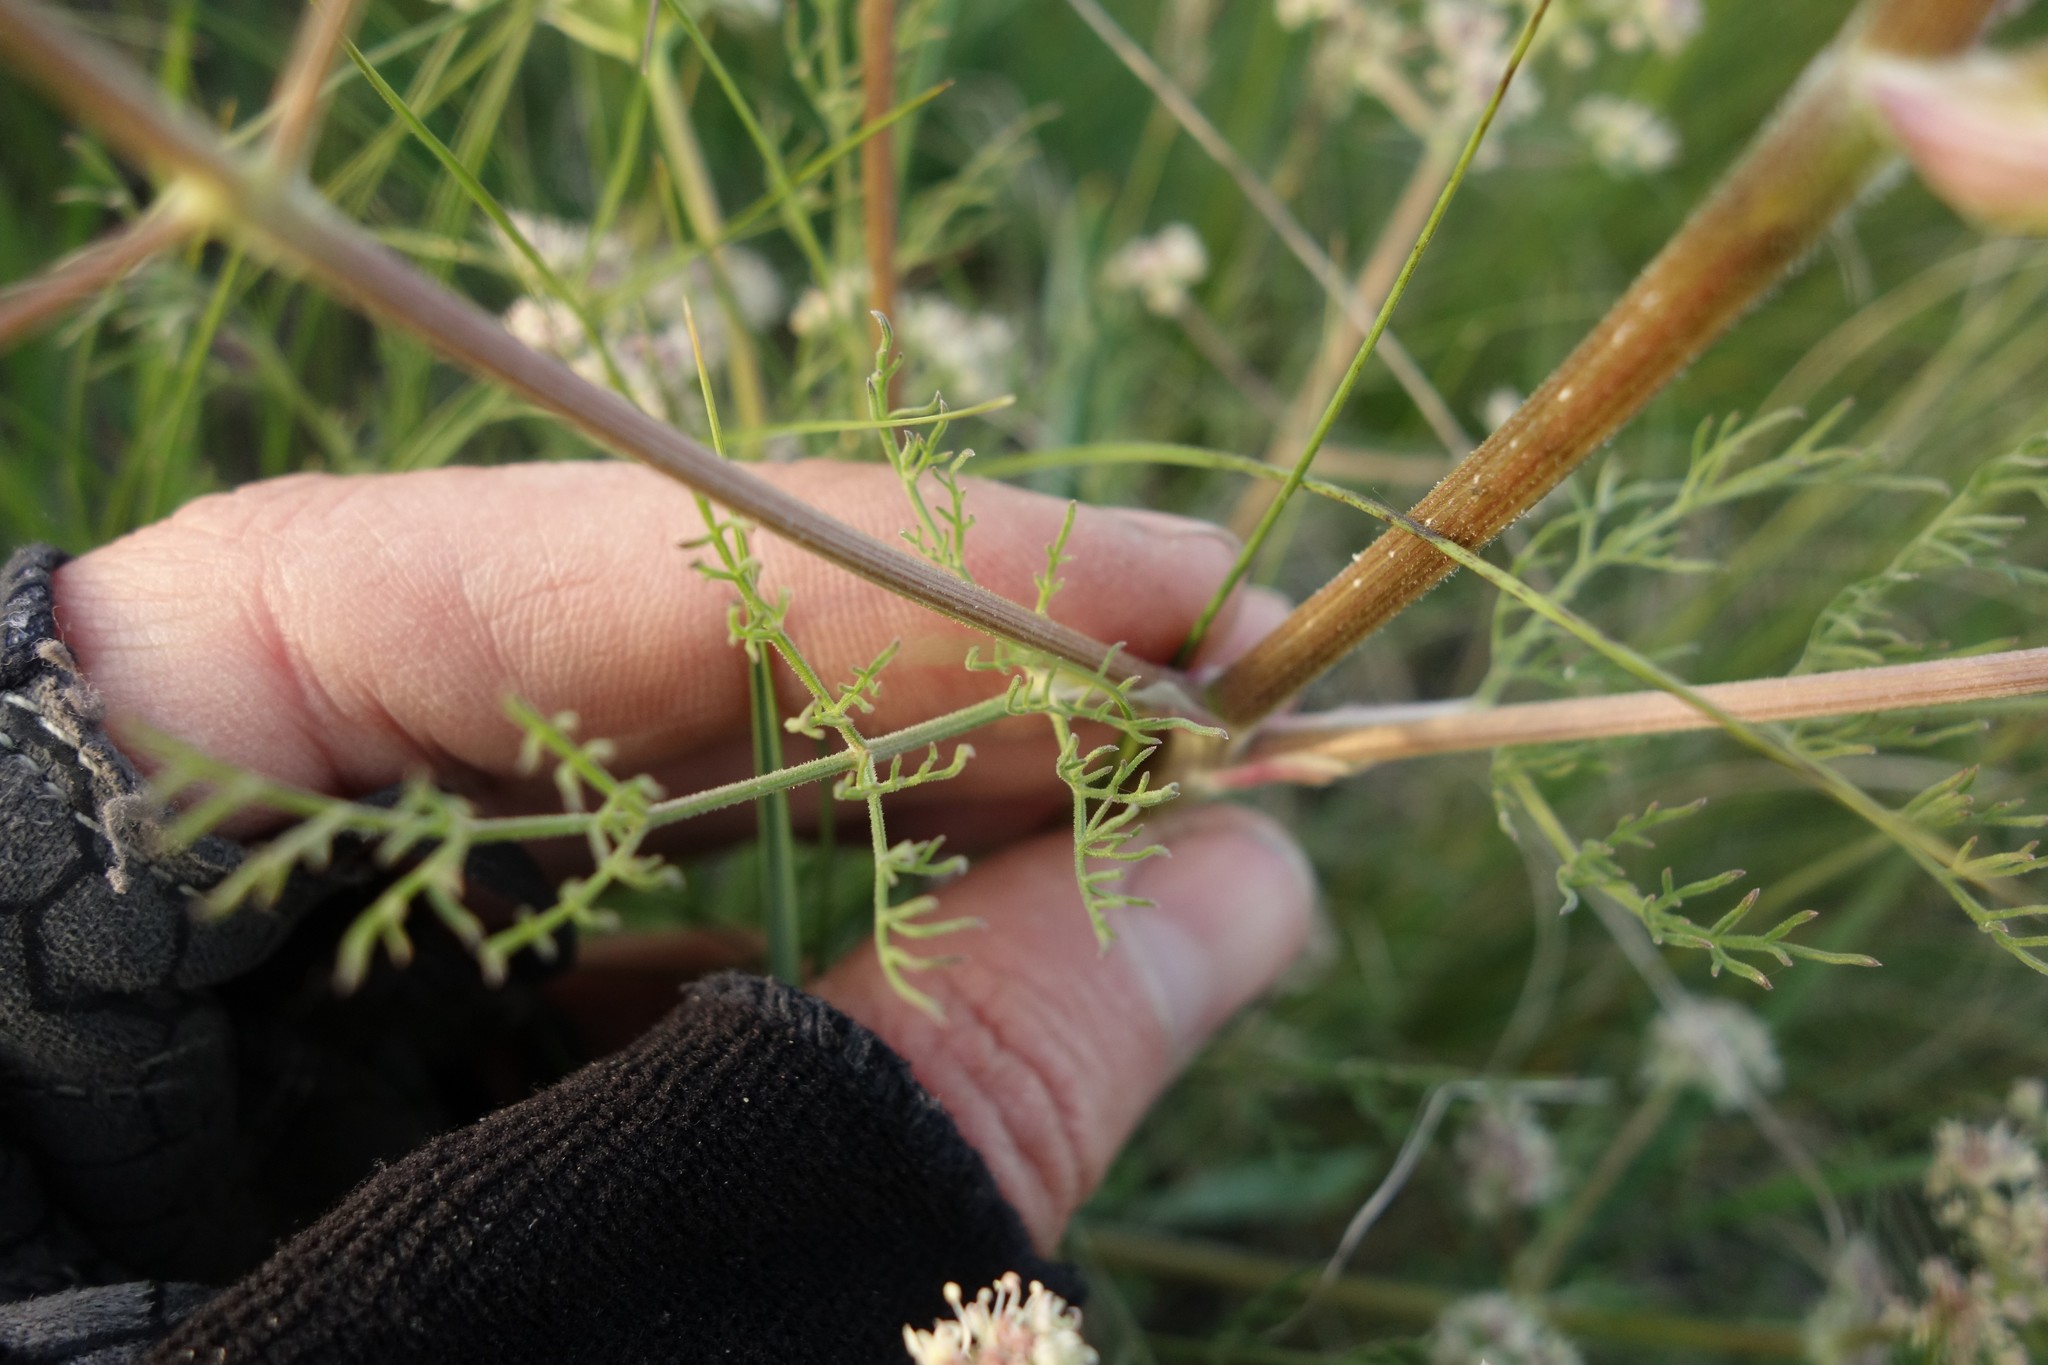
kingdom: Plantae
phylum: Tracheophyta
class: Magnoliopsida
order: Apiales
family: Apiaceae
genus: Trinia
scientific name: Trinia hispida
